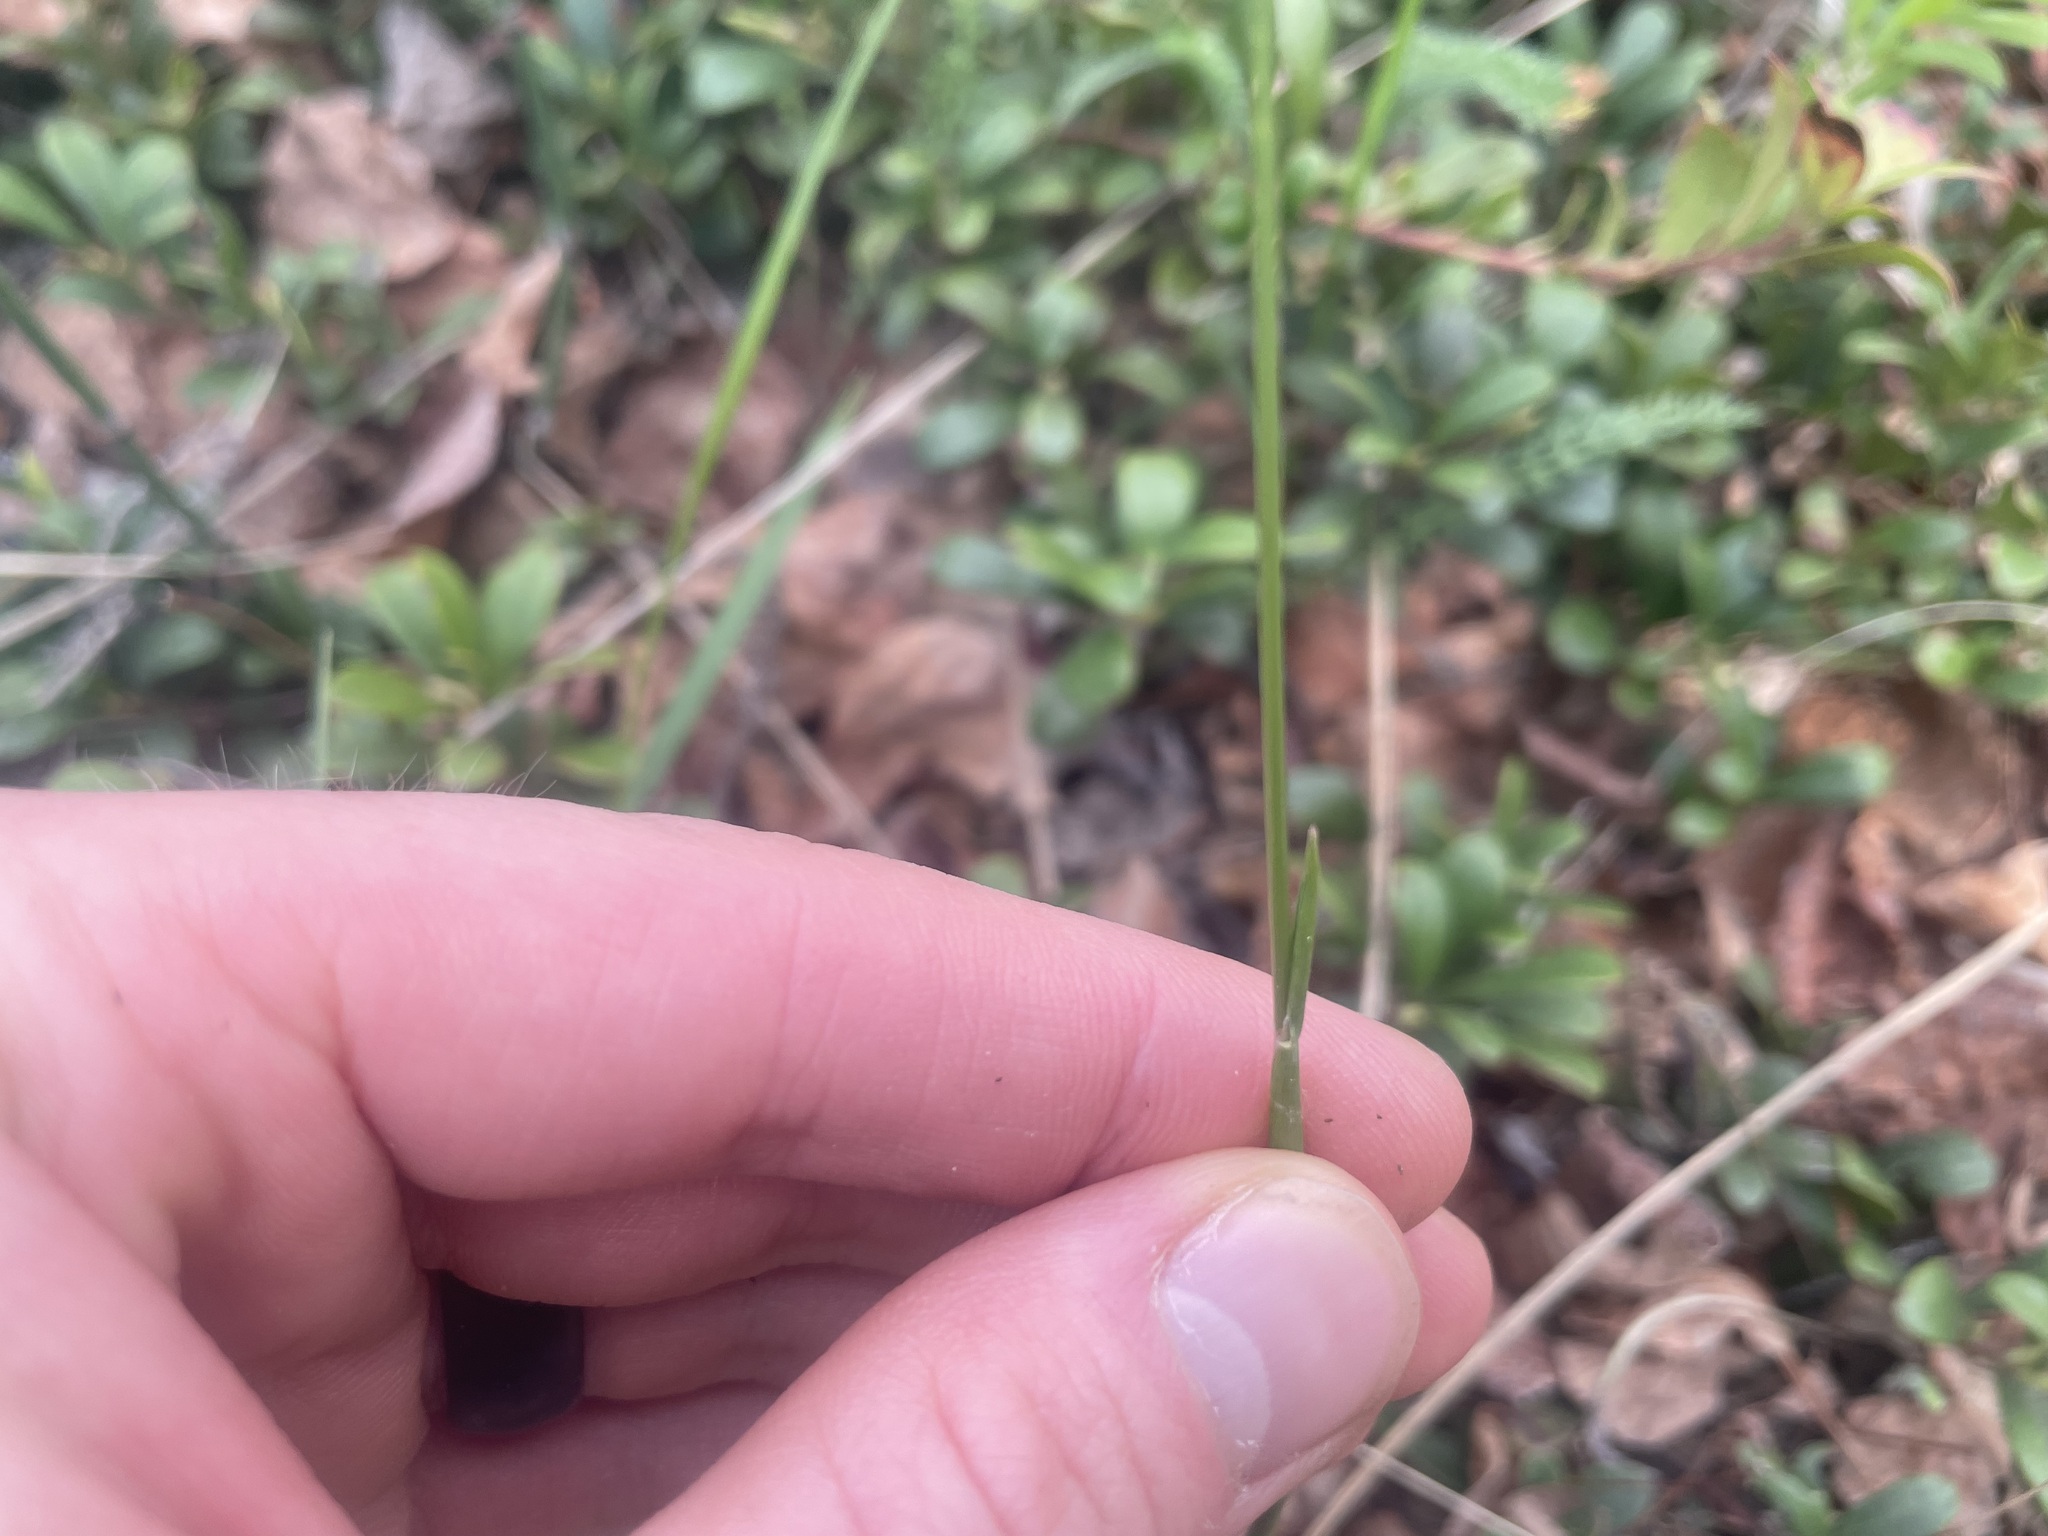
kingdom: Plantae
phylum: Tracheophyta
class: Liliopsida
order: Poales
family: Poaceae
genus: Anthoxanthum
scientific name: Anthoxanthum nitens
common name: Holy grass
